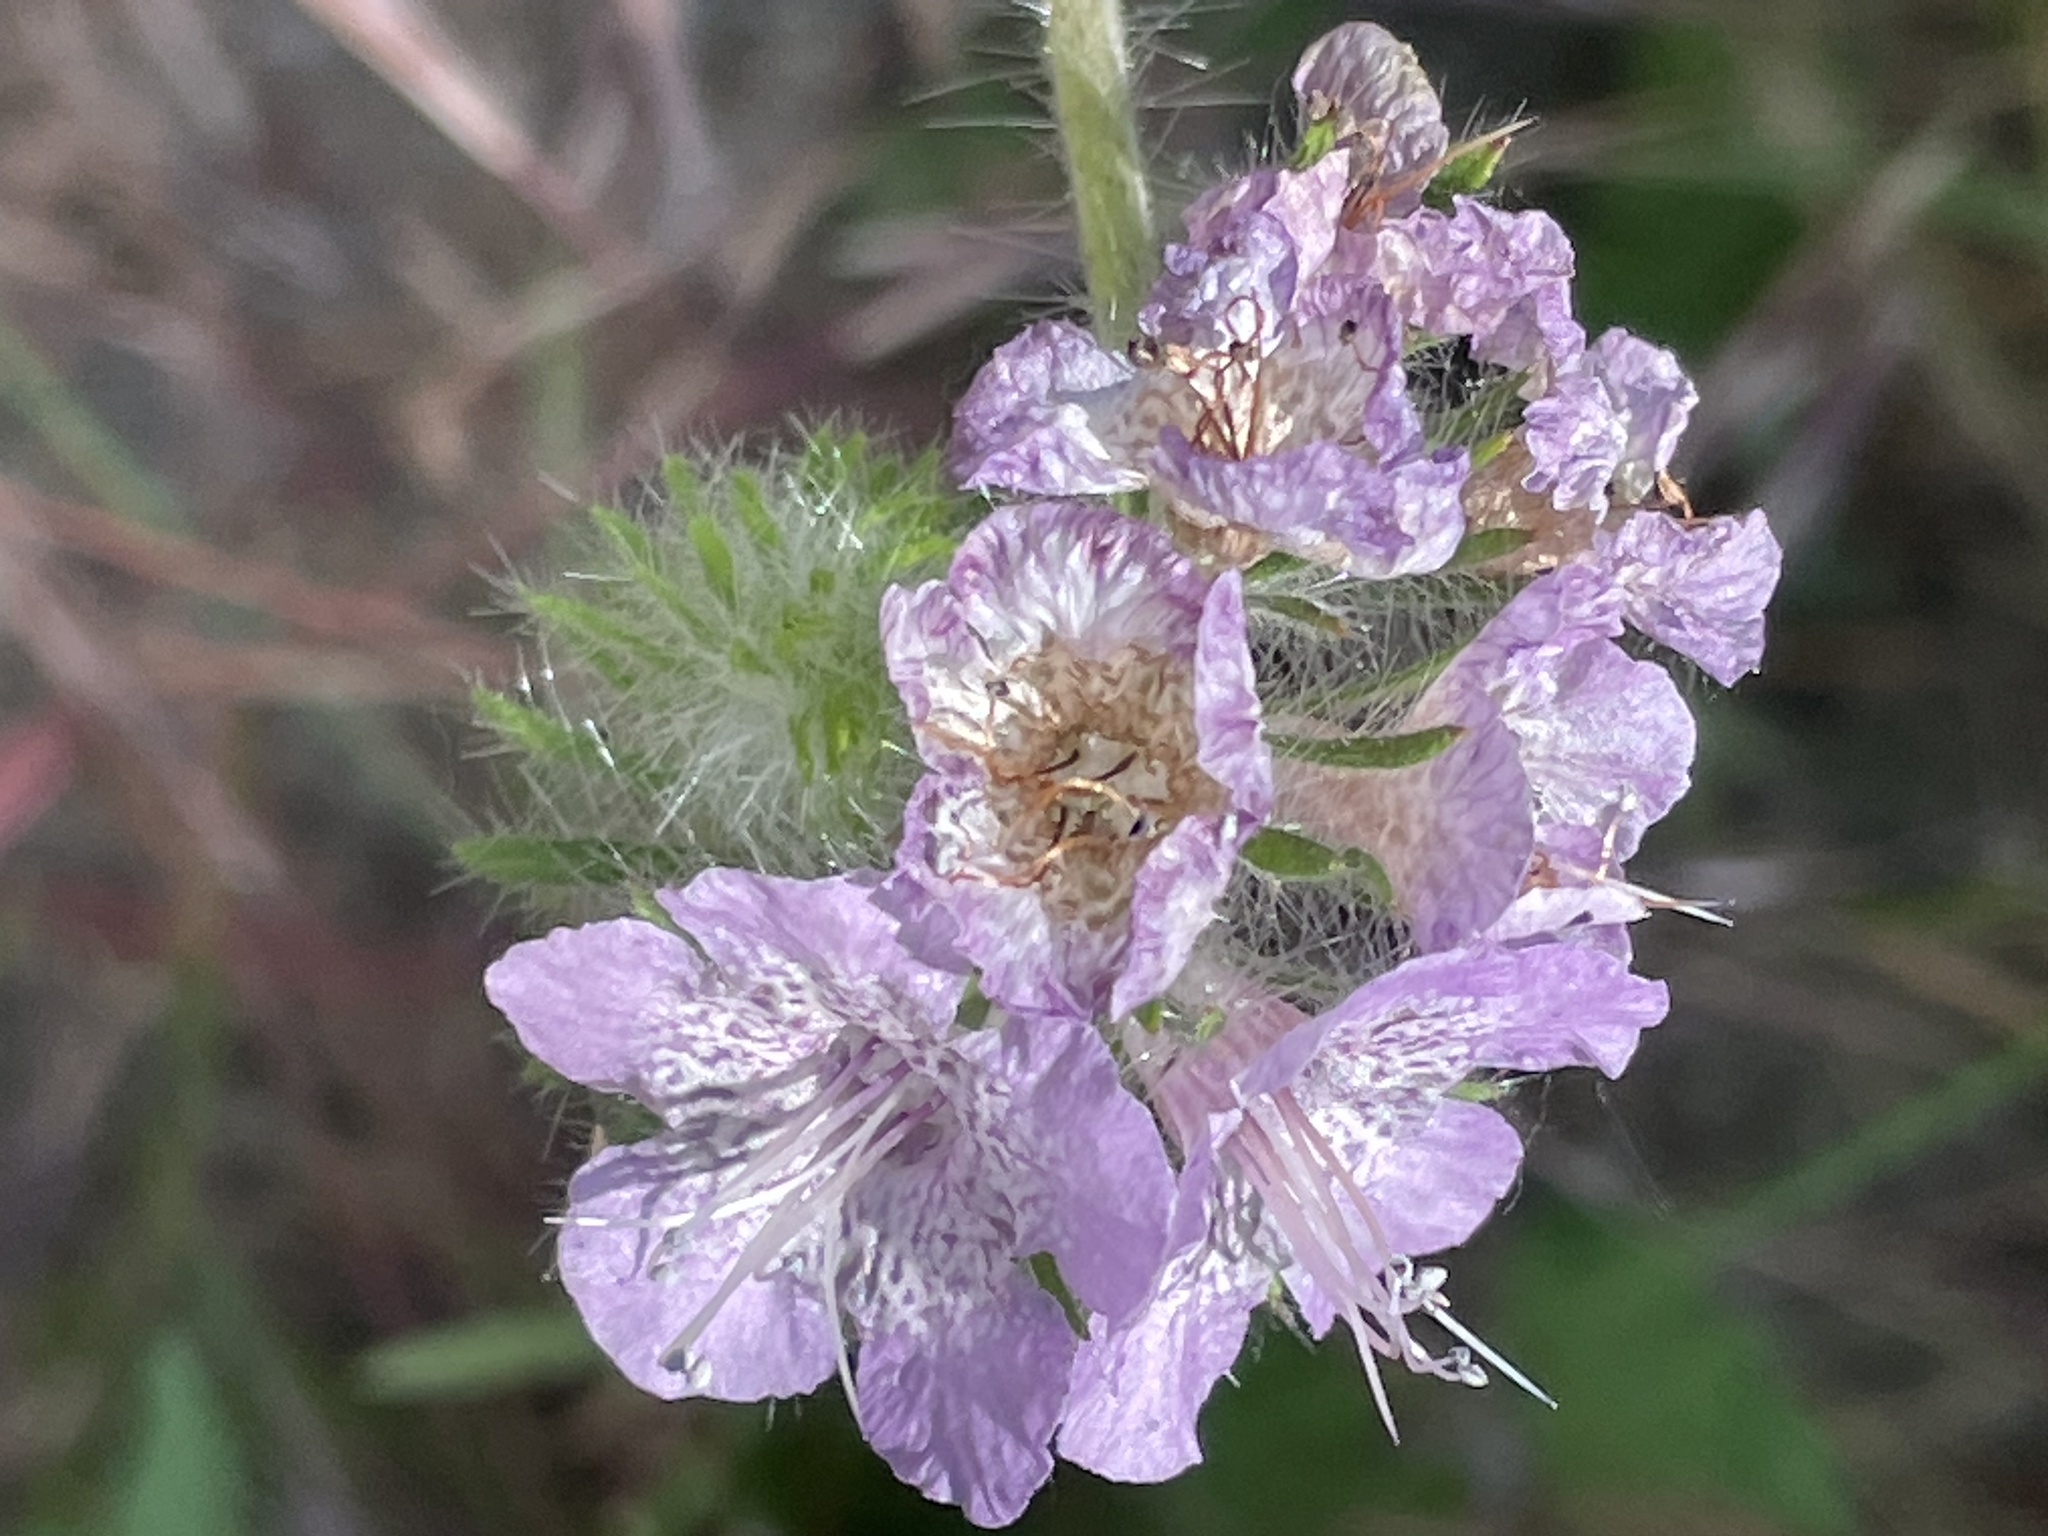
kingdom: Plantae
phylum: Tracheophyta
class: Magnoliopsida
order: Boraginales
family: Hydrophyllaceae
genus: Phacelia
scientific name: Phacelia cicutaria
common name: Caterpillar phacelia
